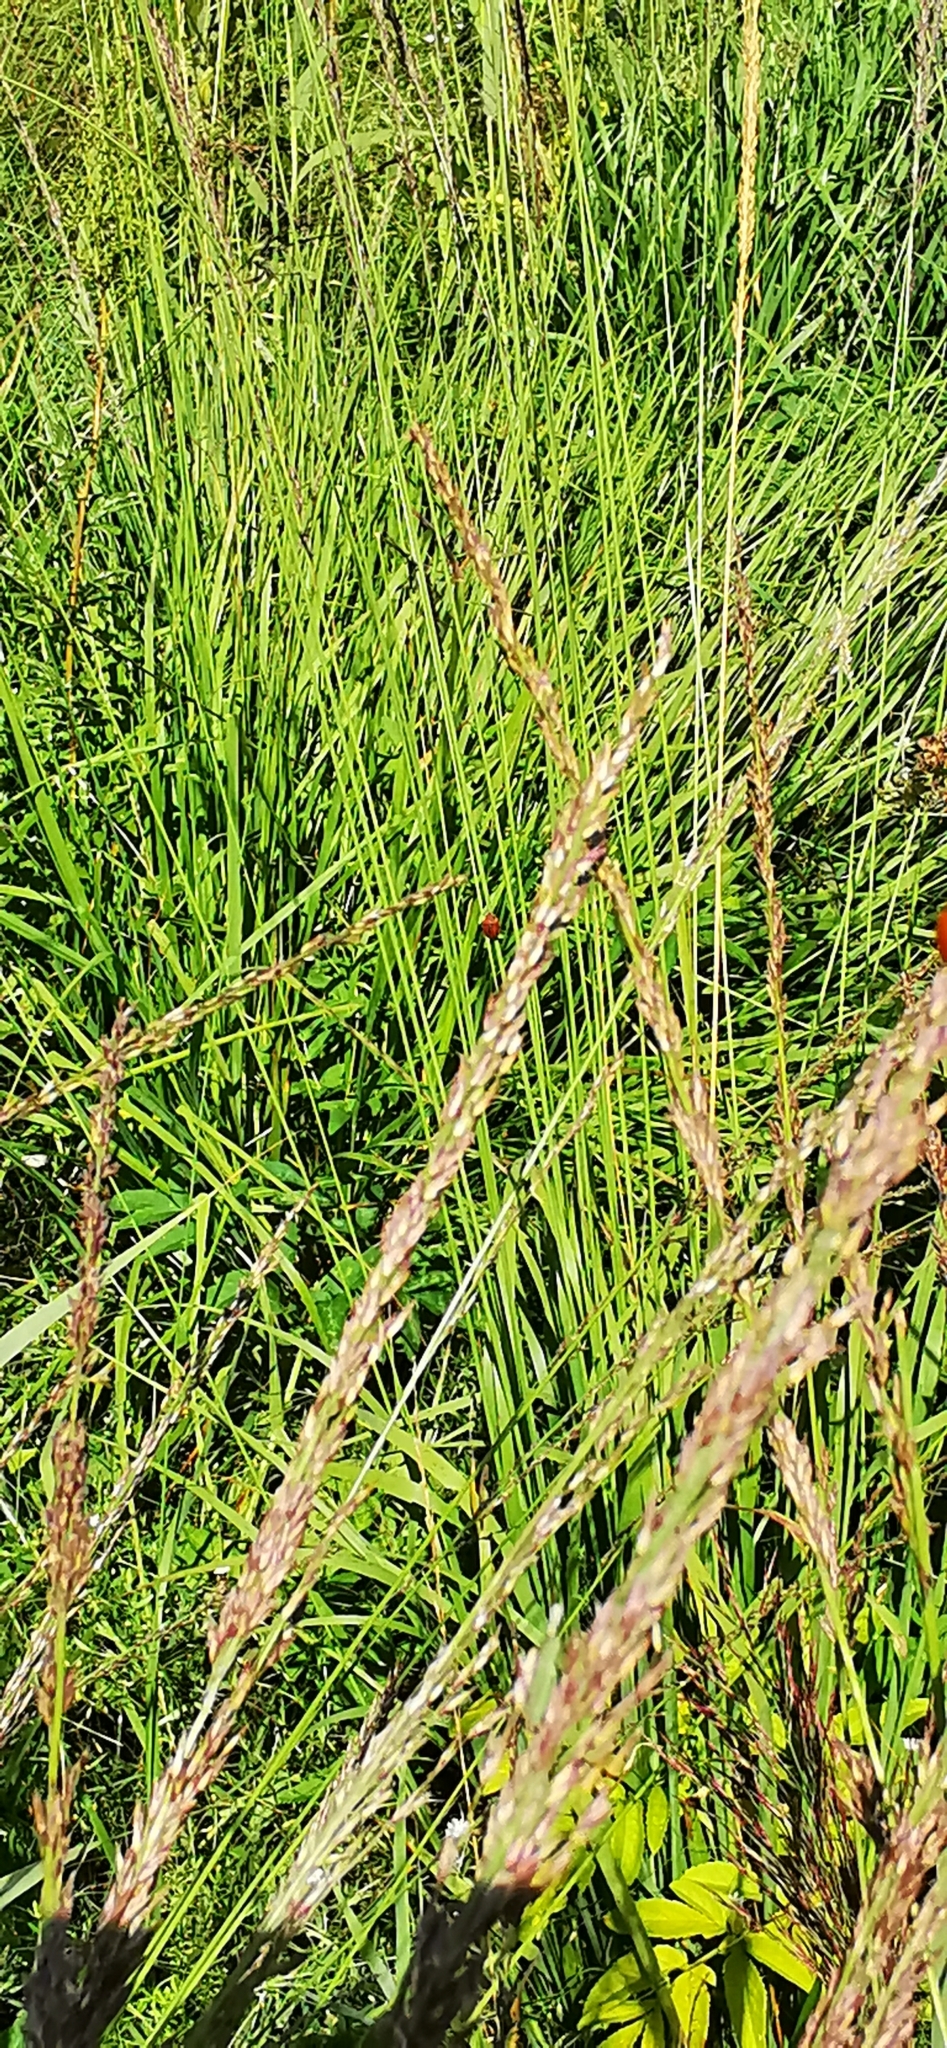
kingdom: Plantae
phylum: Tracheophyta
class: Liliopsida
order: Poales
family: Poaceae
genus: Molinia
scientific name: Molinia caerulea
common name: Purple moor-grass
